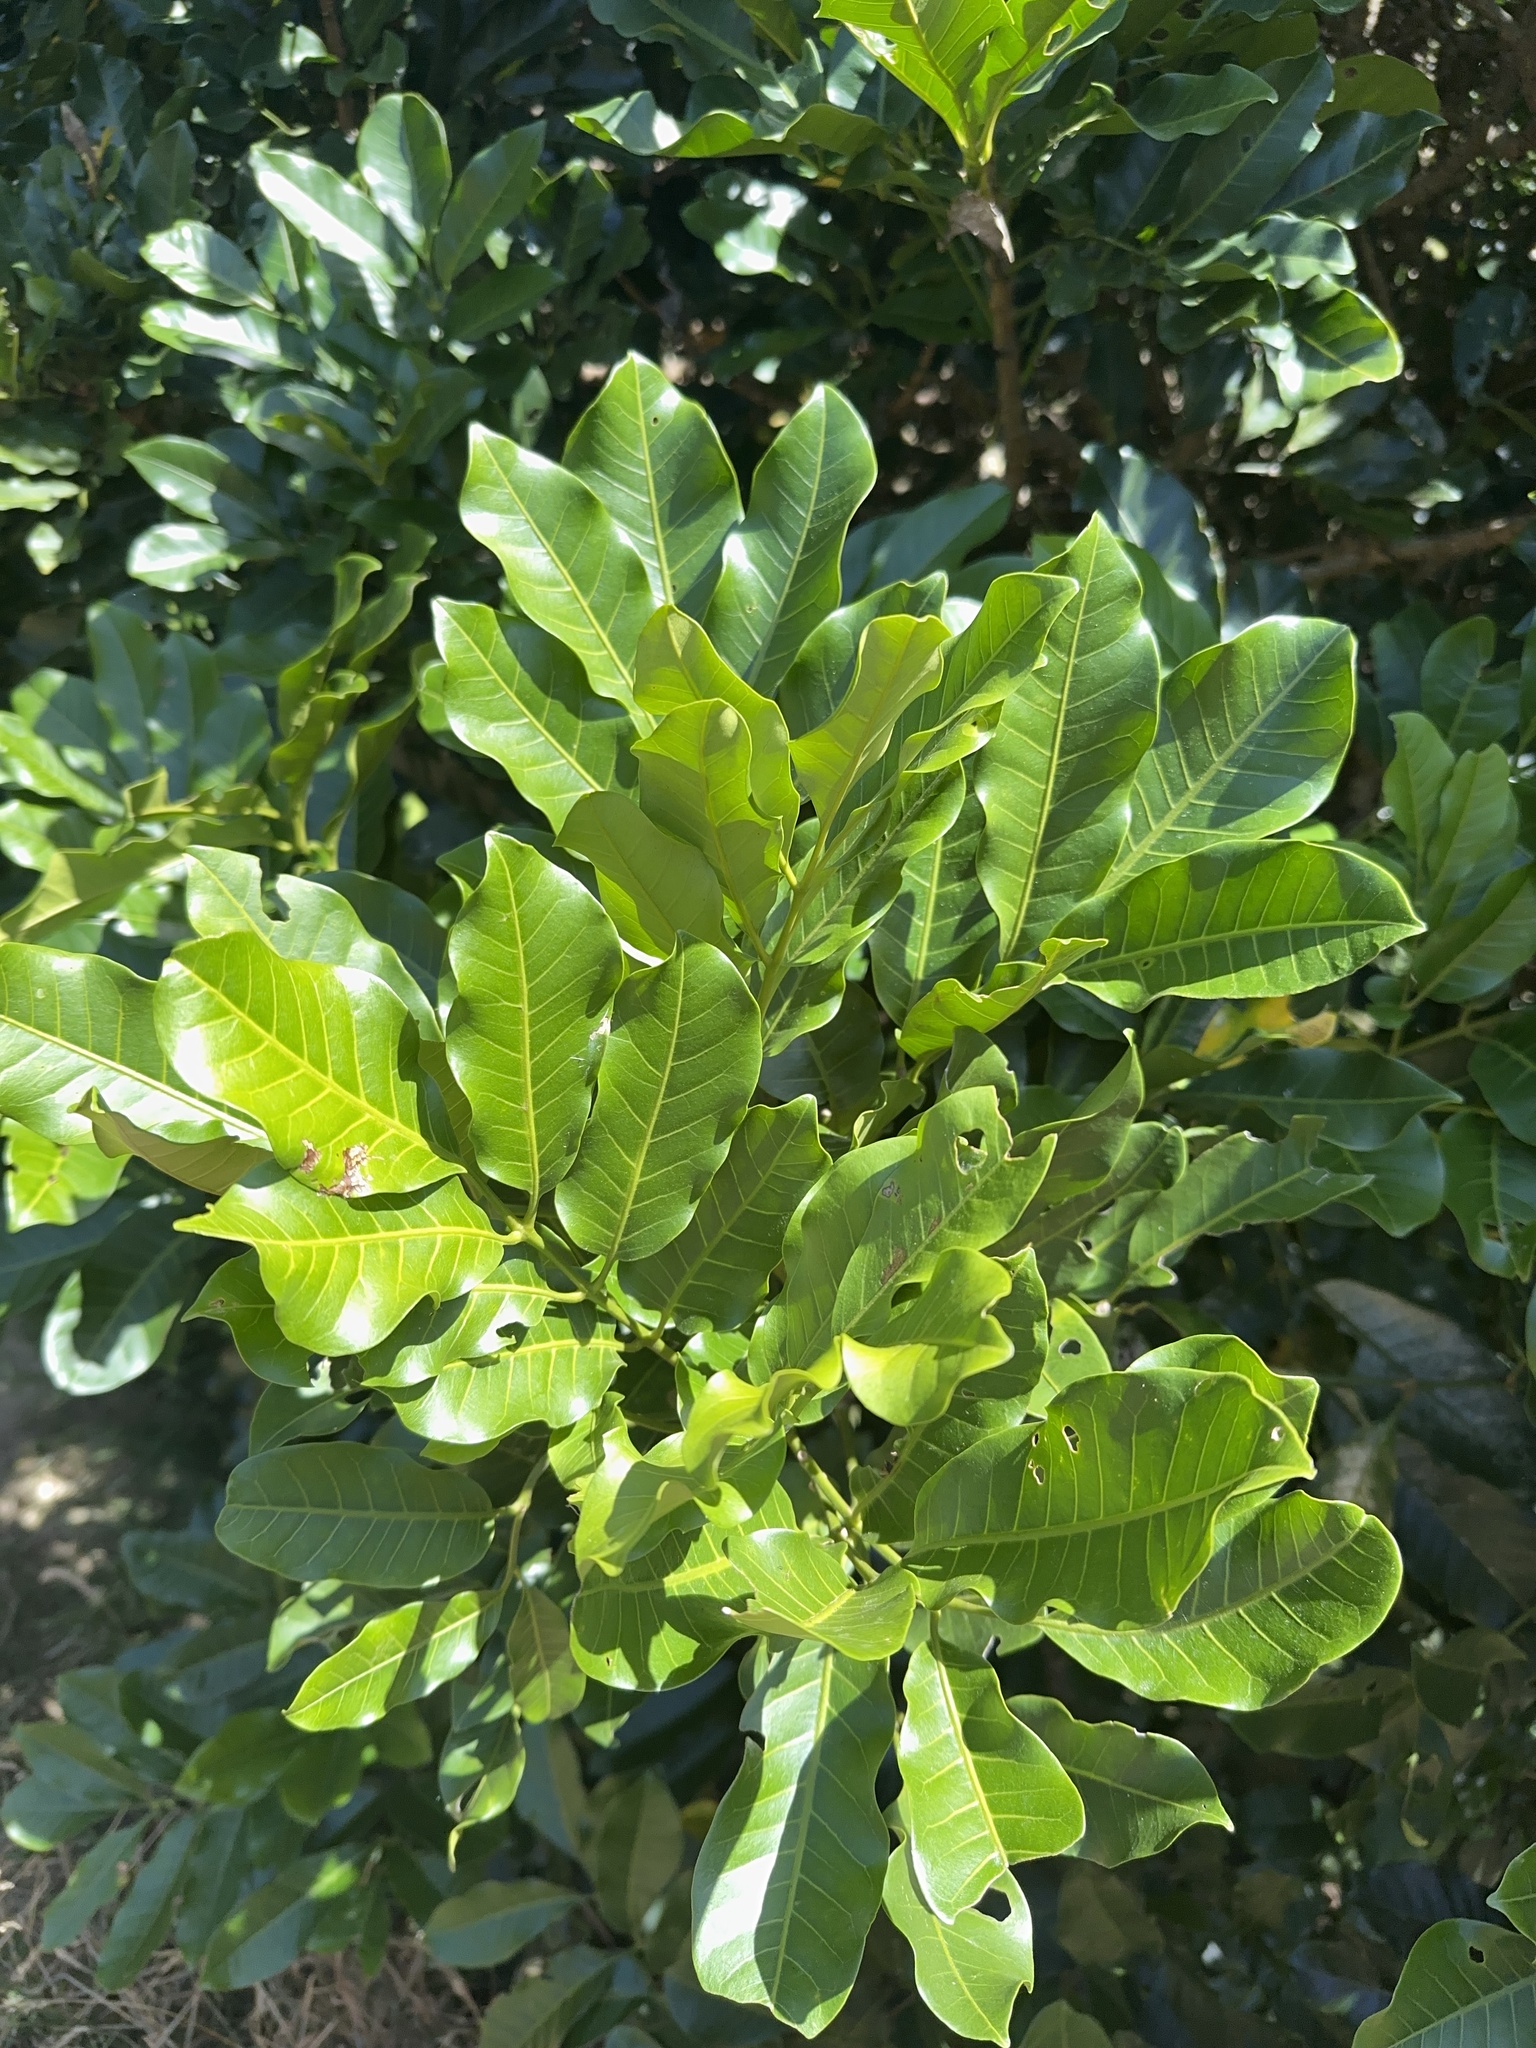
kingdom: Plantae
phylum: Tracheophyta
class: Magnoliopsida
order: Sapindales
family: Meliaceae
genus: Didymocheton
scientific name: Didymocheton spectabilis
